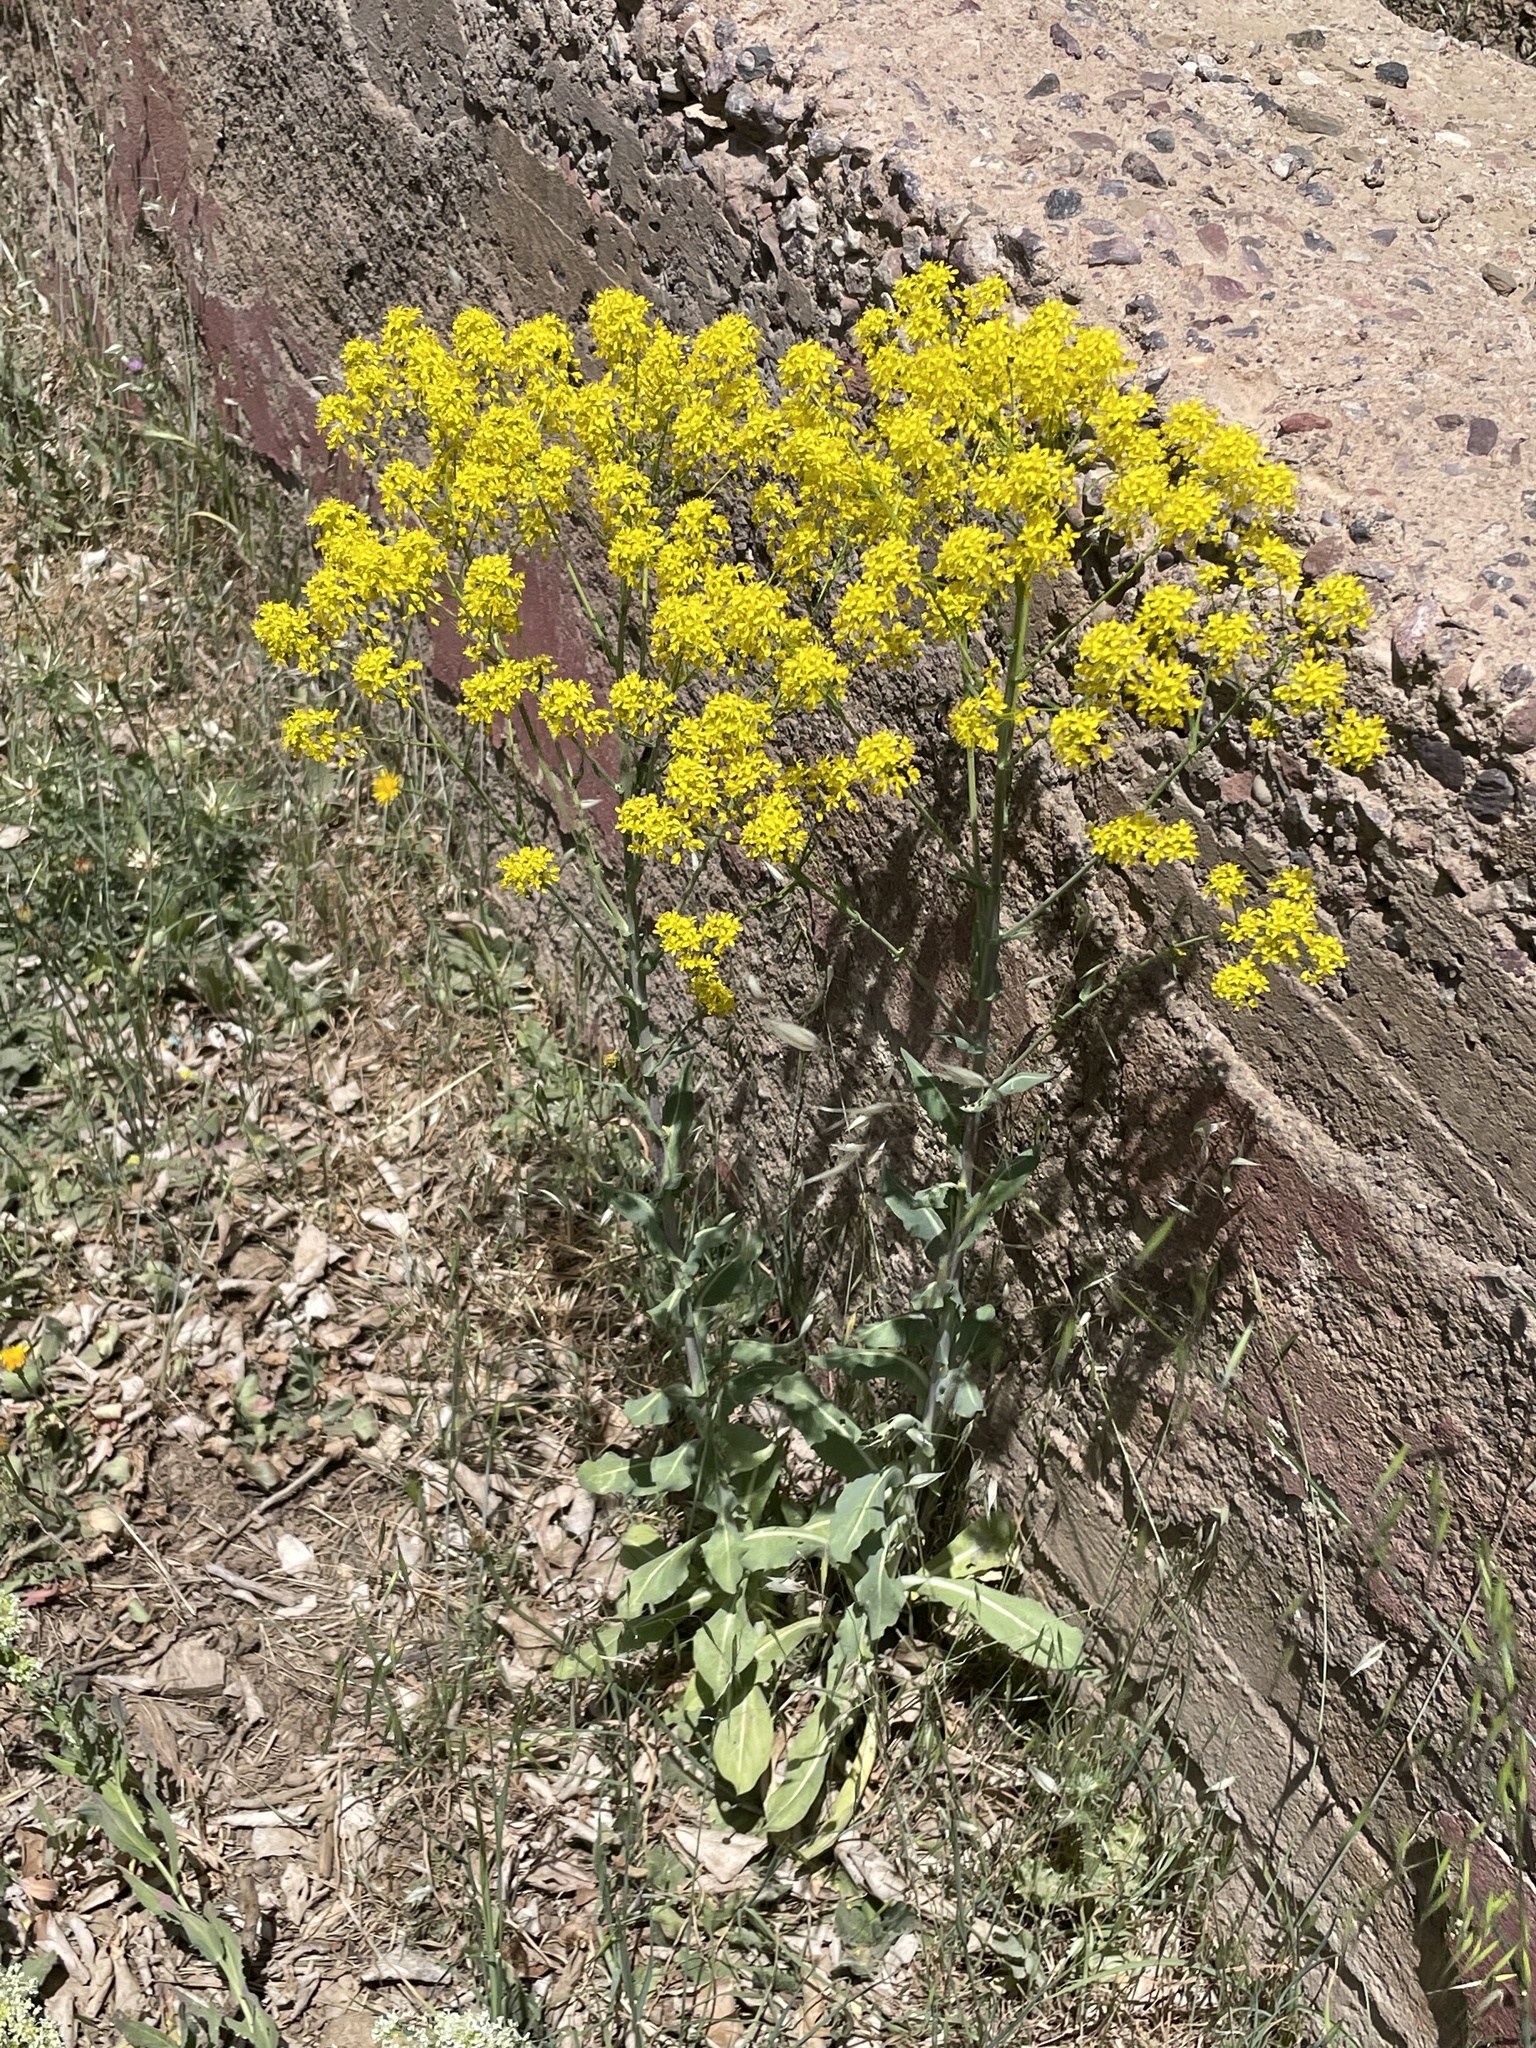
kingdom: Plantae
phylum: Tracheophyta
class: Magnoliopsida
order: Brassicales
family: Brassicaceae
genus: Isatis
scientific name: Isatis tinctoria
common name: Woad
